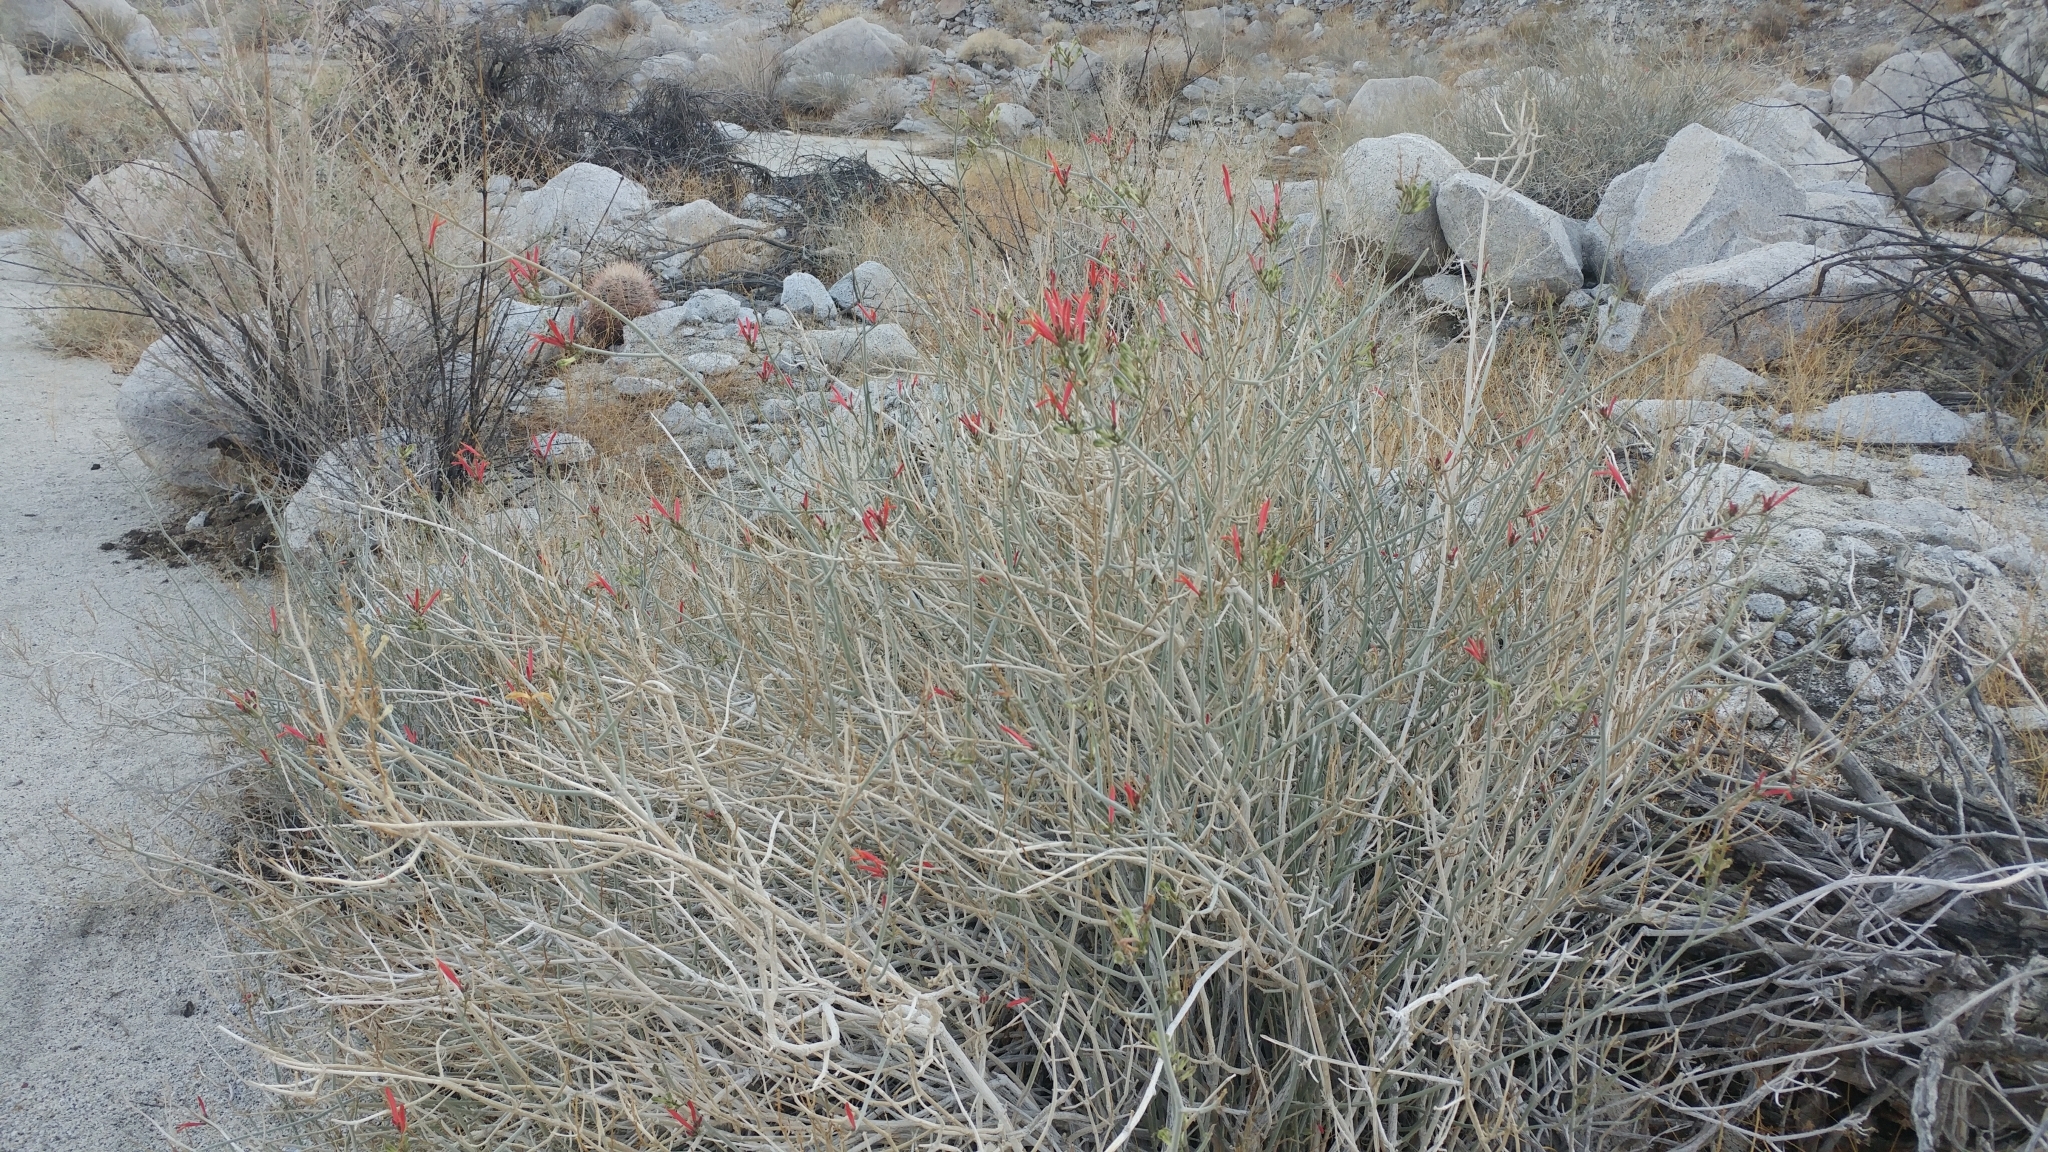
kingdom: Plantae
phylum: Tracheophyta
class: Magnoliopsida
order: Lamiales
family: Acanthaceae
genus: Justicia
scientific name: Justicia californica
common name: Chuparosa-honeysuckle
